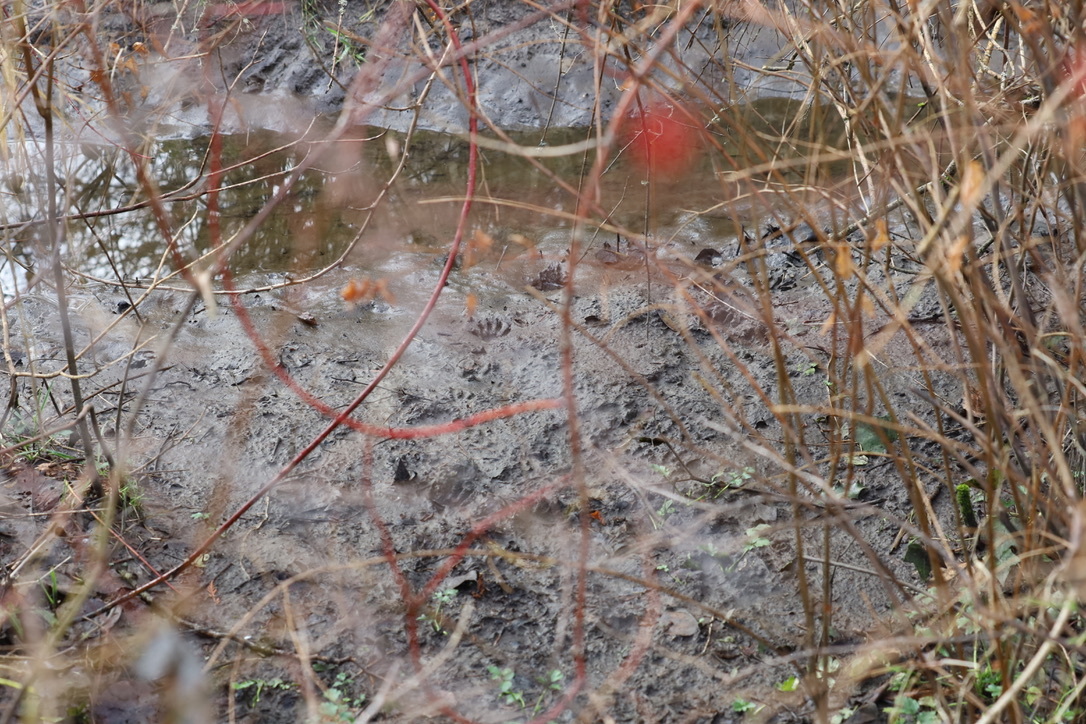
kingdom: Animalia
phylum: Chordata
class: Mammalia
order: Carnivora
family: Procyonidae
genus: Procyon
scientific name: Procyon lotor
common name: Raccoon
